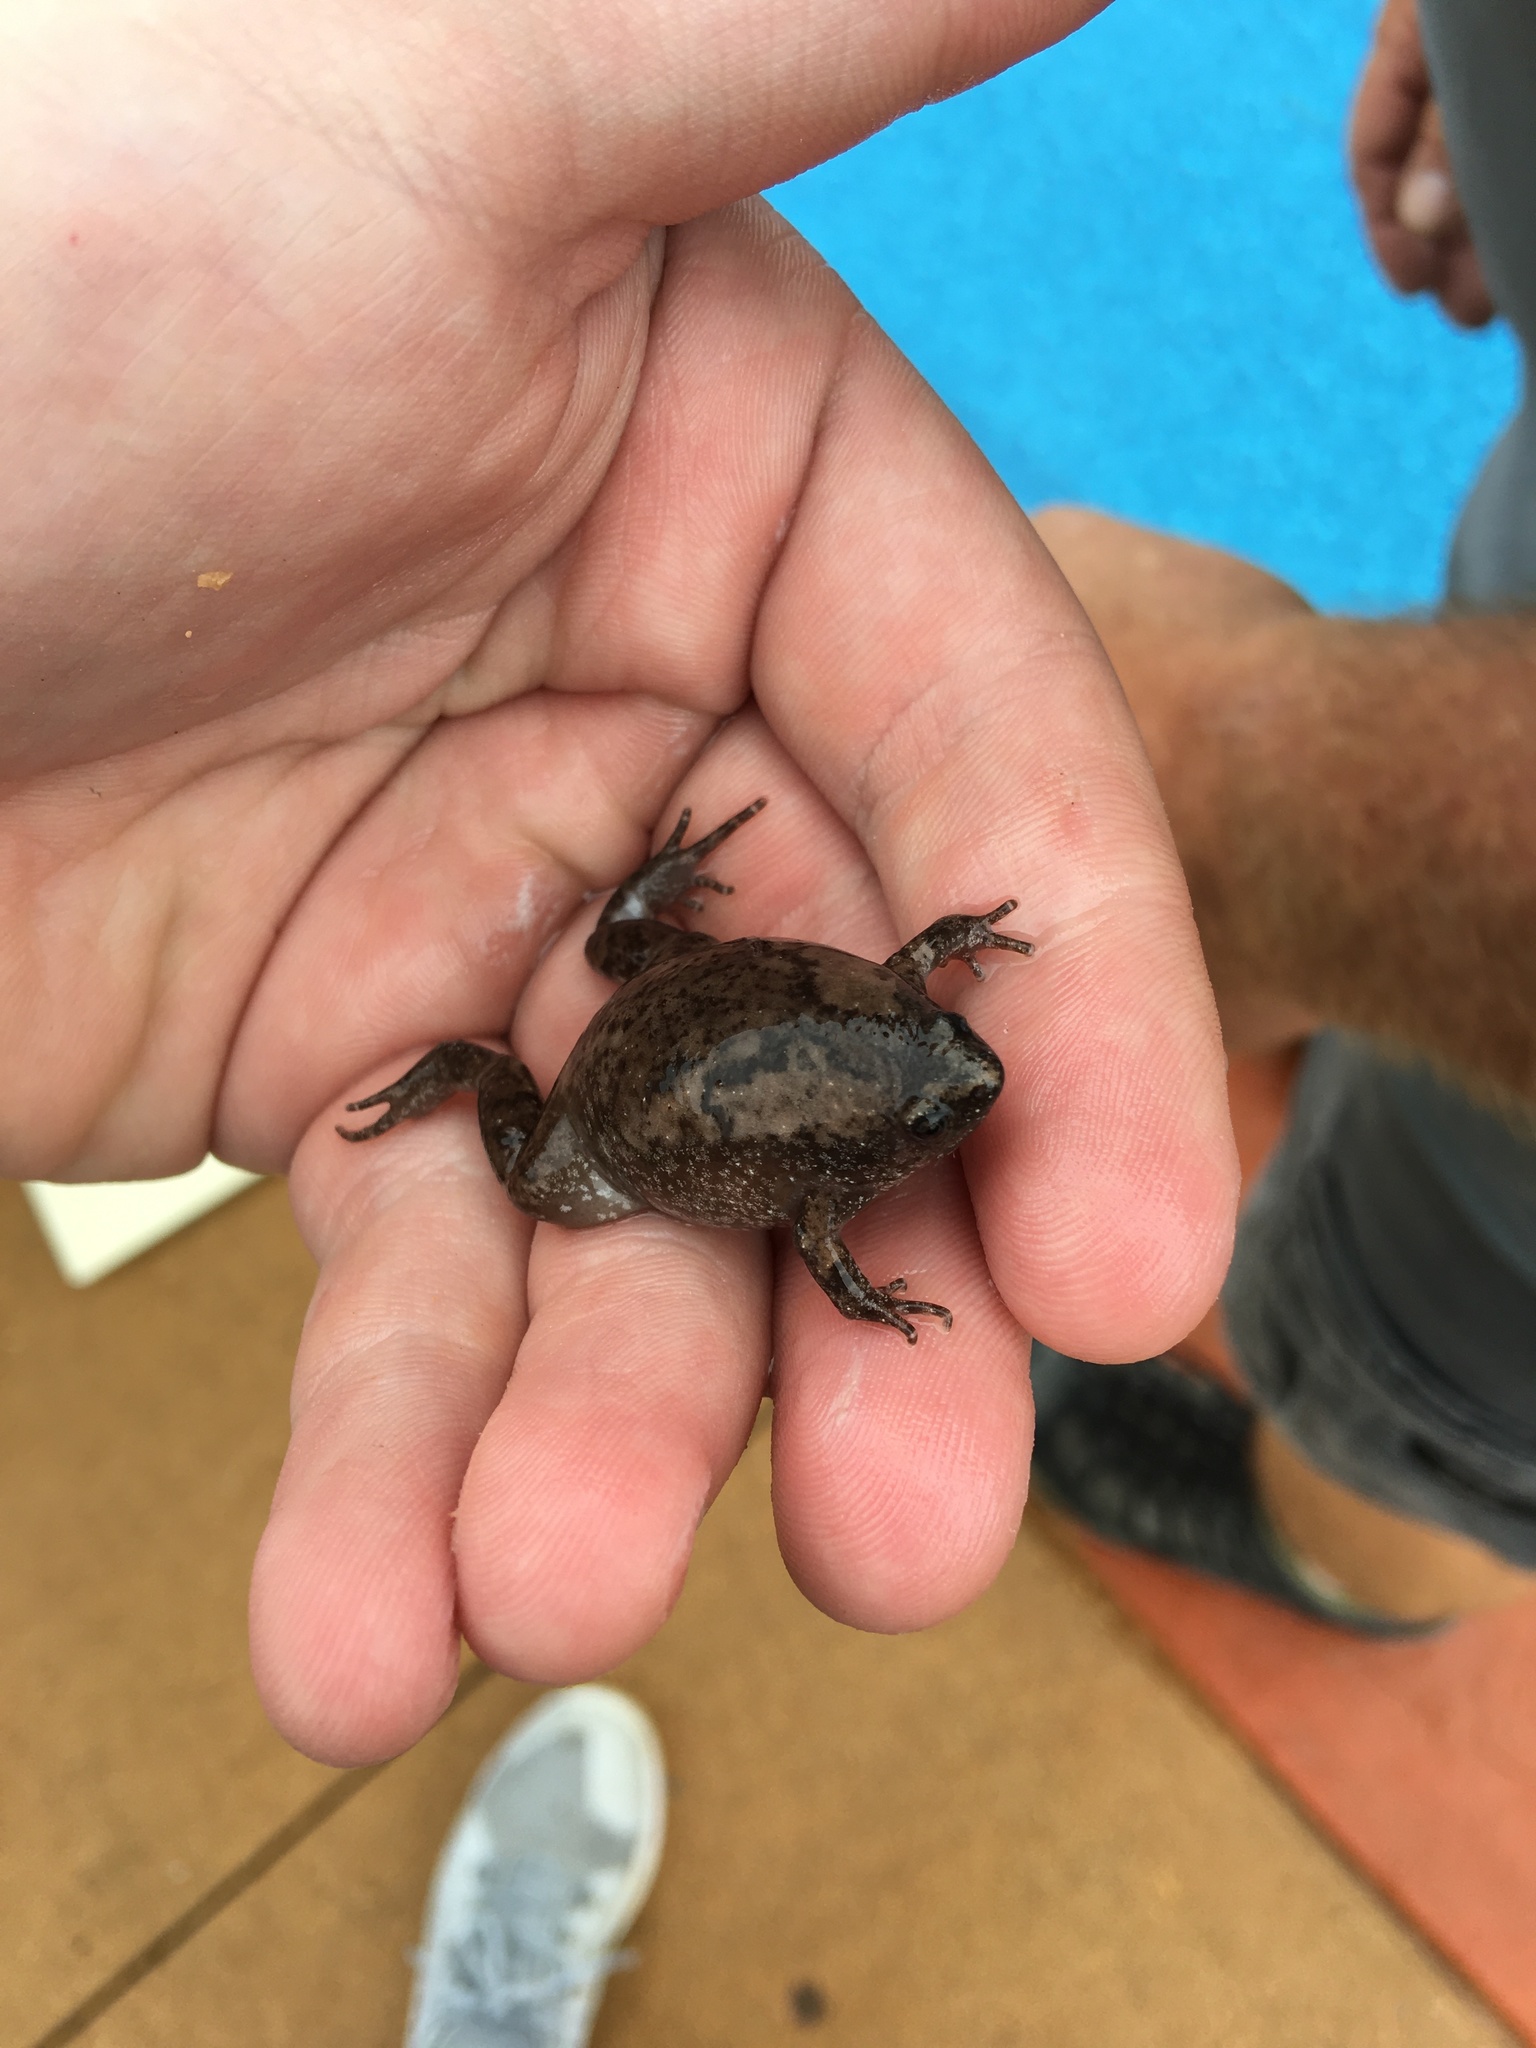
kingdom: Animalia
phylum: Chordata
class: Amphibia
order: Anura
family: Microhylidae
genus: Gastrophryne
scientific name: Gastrophryne carolinensis
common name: Eastern narrowmouth toad
